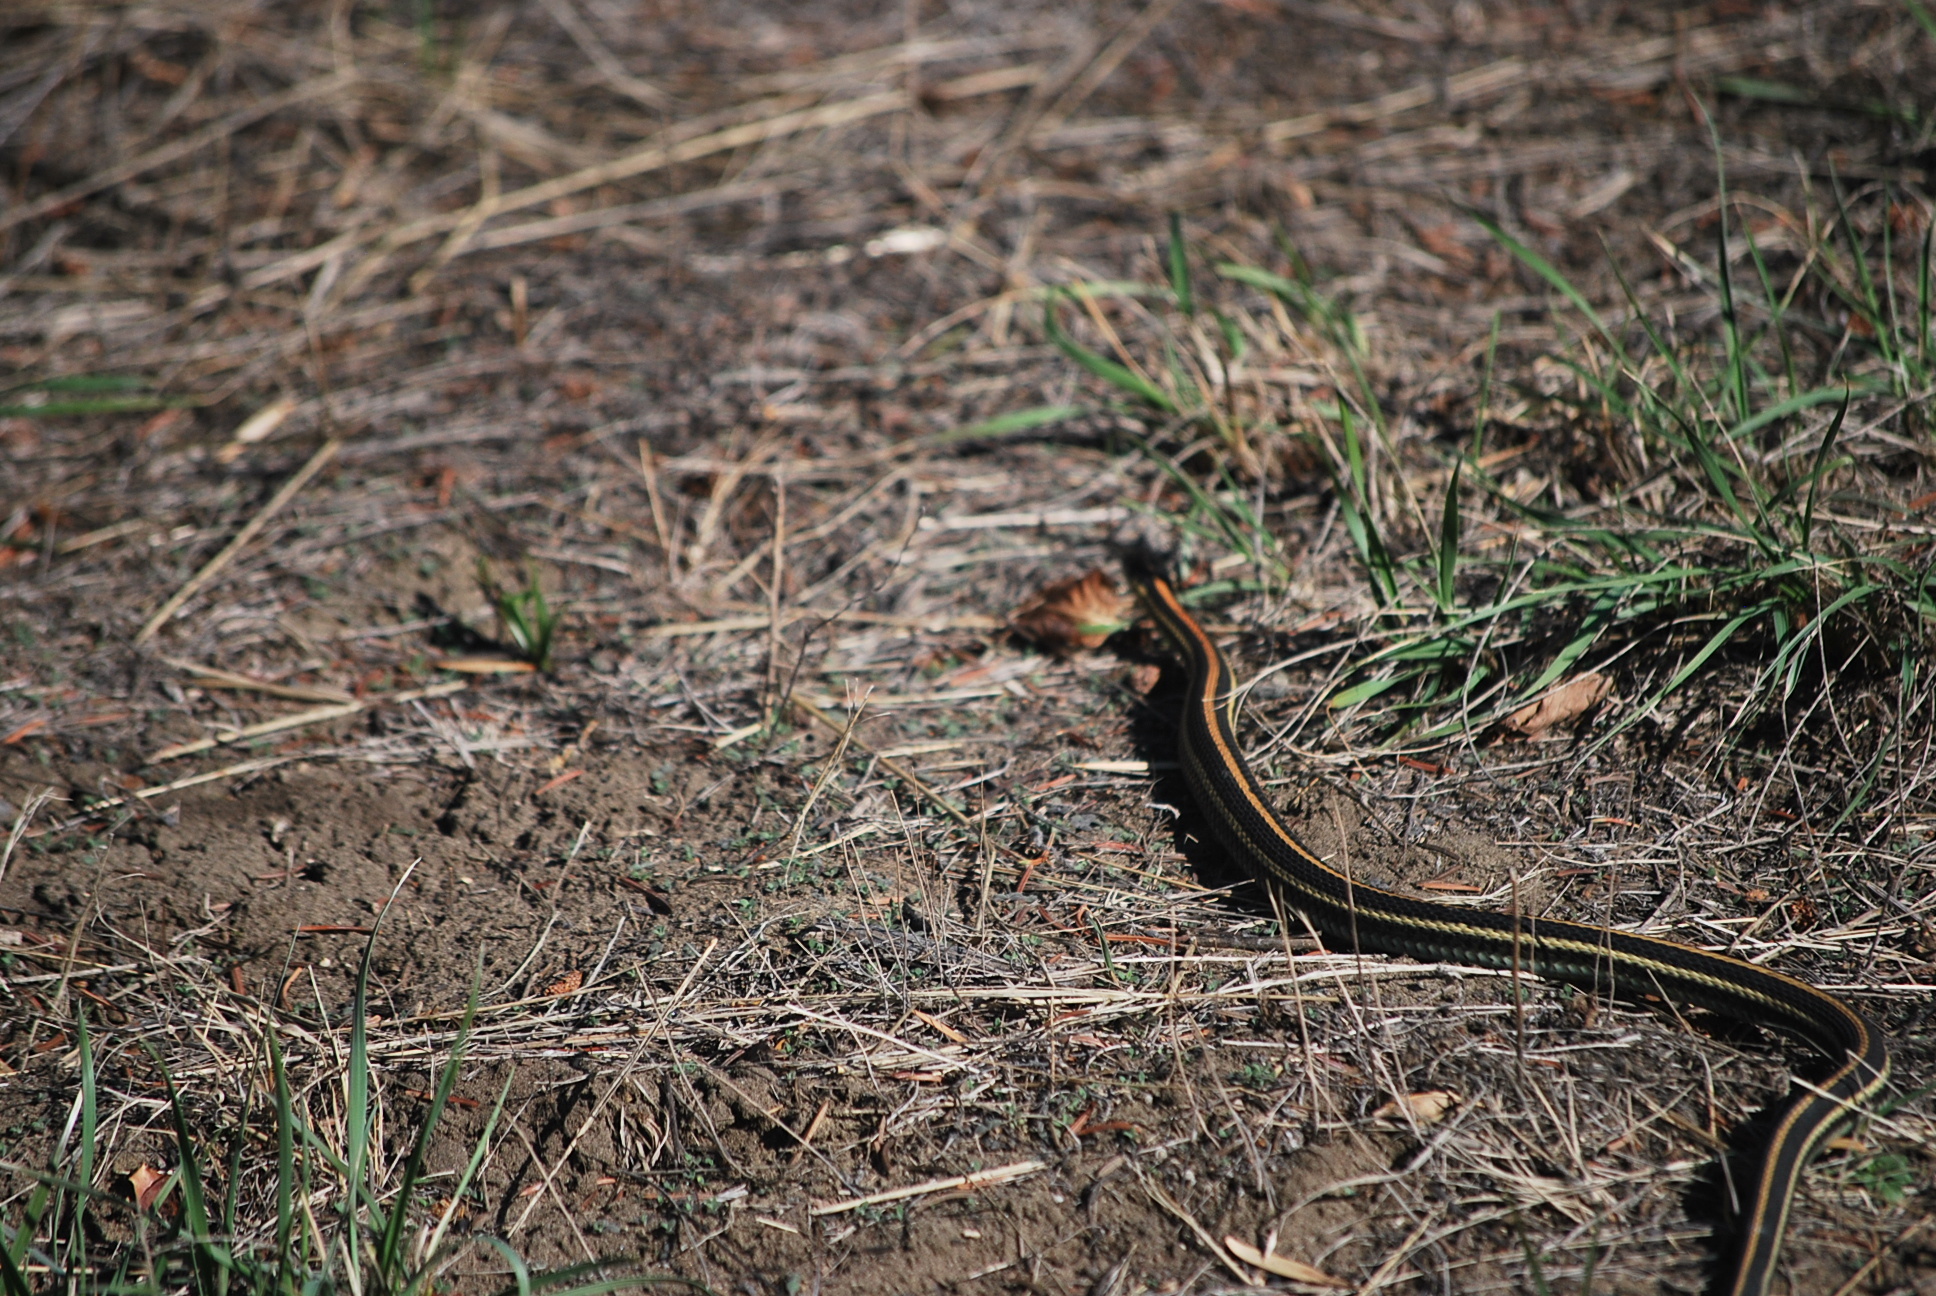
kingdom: Animalia
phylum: Chordata
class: Squamata
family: Colubridae
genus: Thamnophis
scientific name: Thamnophis radix
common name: Plains garter snake
